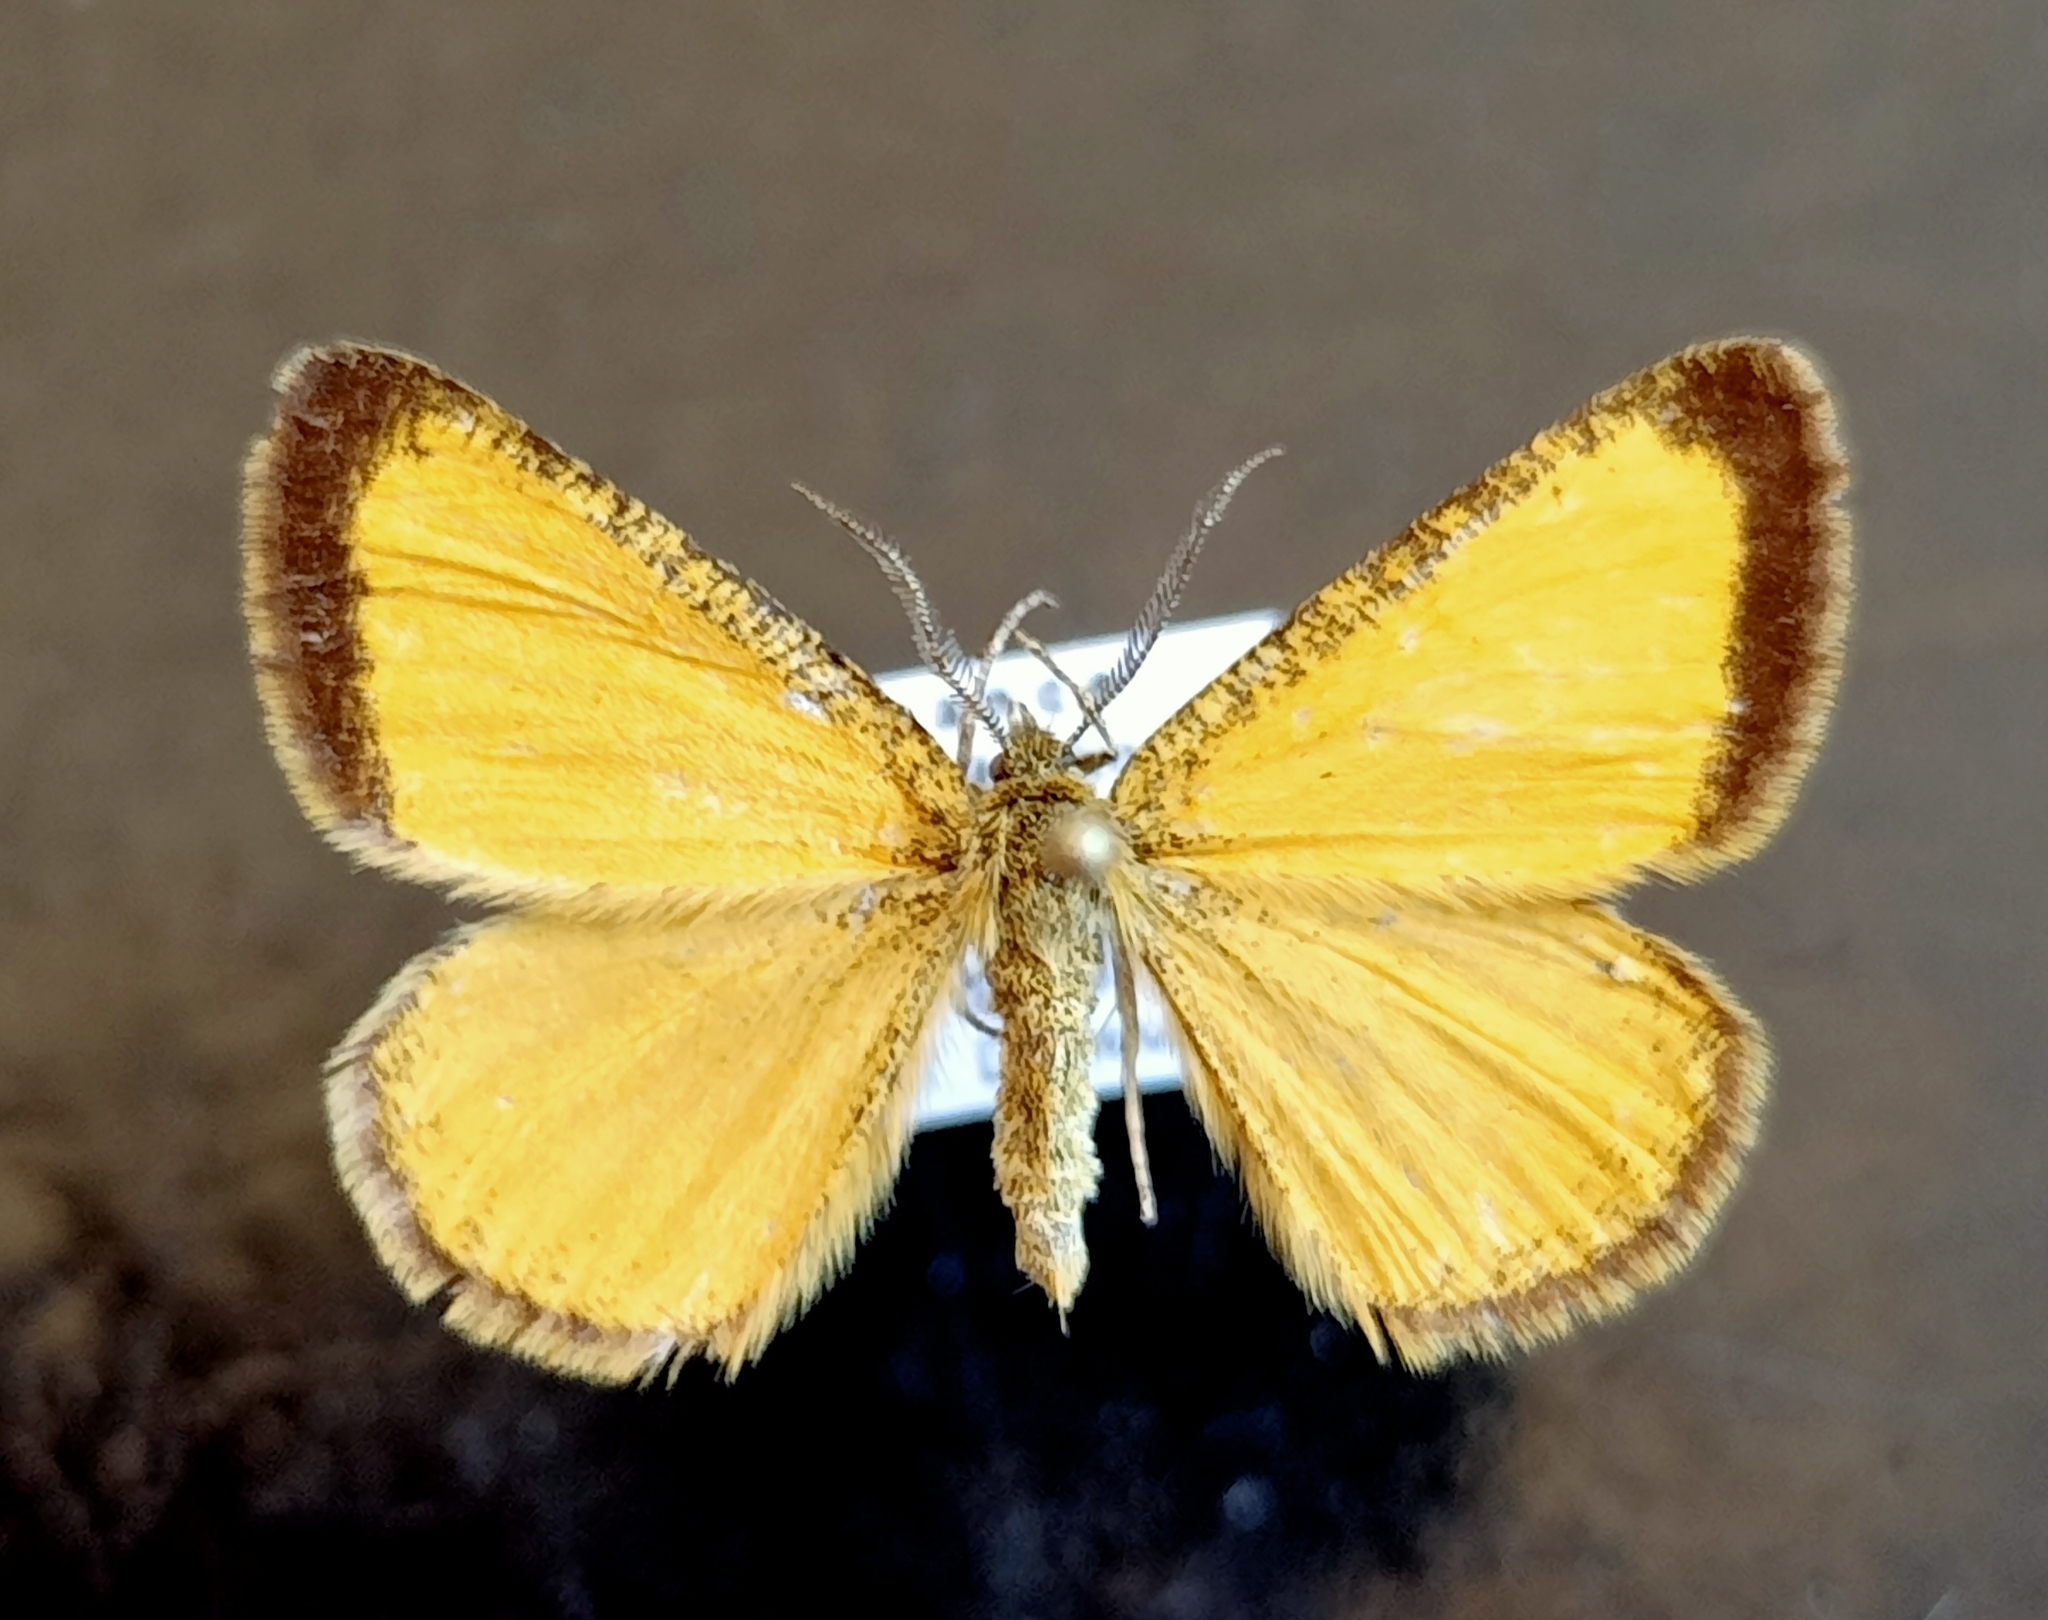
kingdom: Animalia
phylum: Arthropoda
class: Insecta
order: Lepidoptera
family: Geometridae
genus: Isturgia
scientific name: Isturgia limbaria
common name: Frosted yellow
